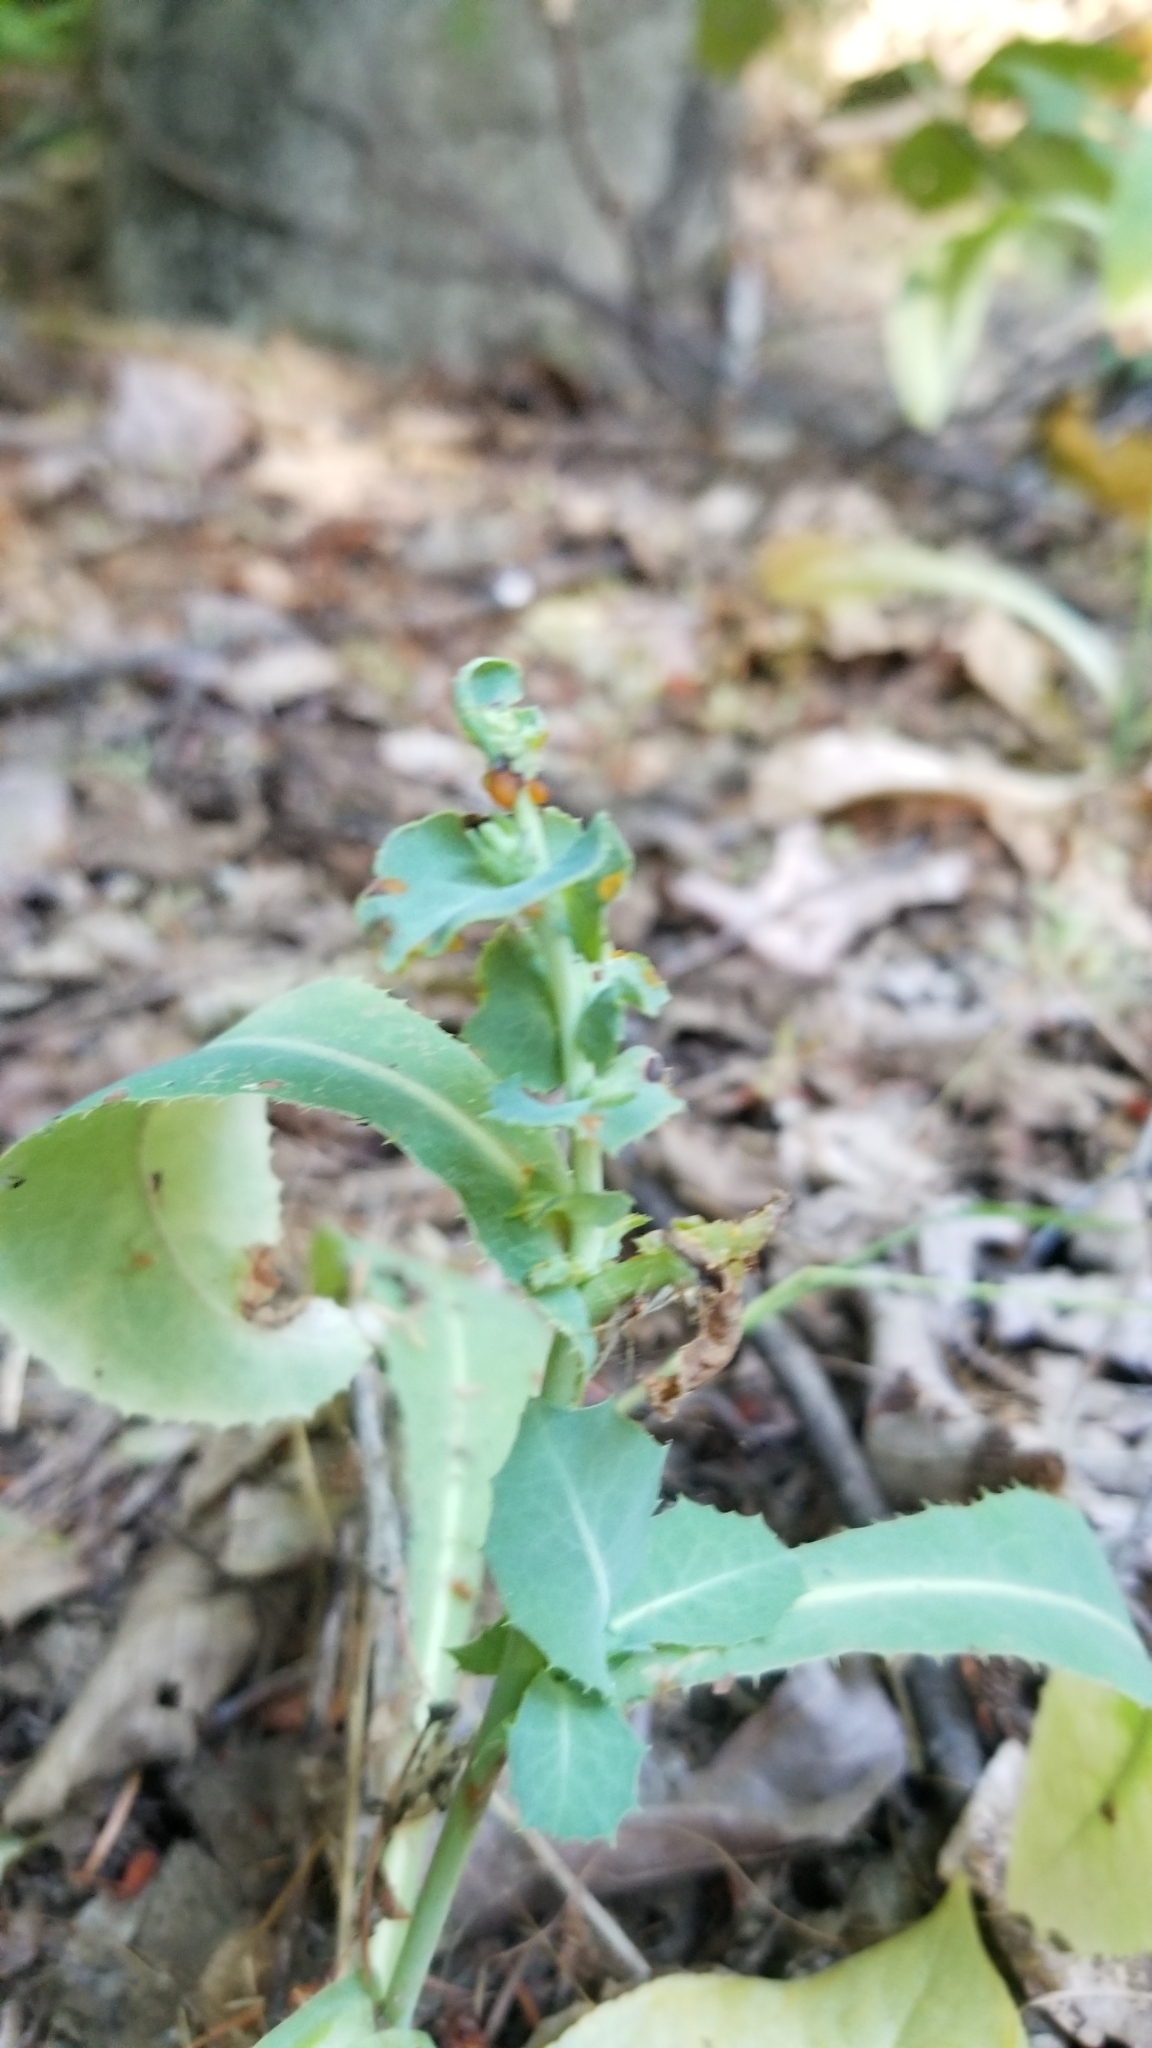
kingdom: Plantae
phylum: Tracheophyta
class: Magnoliopsida
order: Asterales
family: Asteraceae
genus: Lactuca
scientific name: Lactuca serriola
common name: Prickly lettuce
